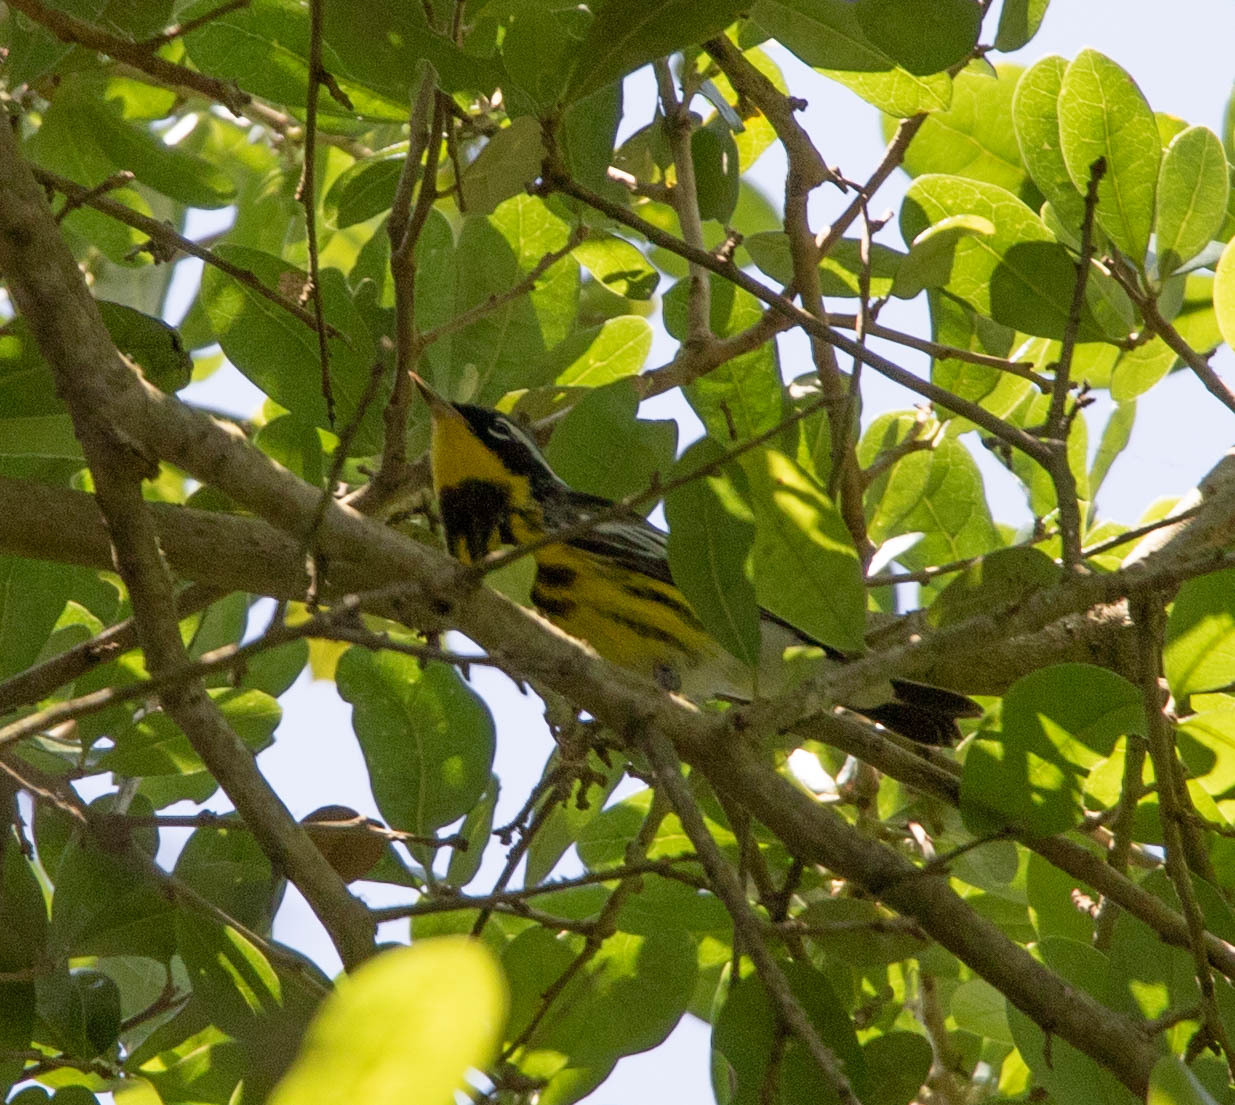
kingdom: Animalia
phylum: Chordata
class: Aves
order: Passeriformes
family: Parulidae
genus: Setophaga
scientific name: Setophaga magnolia
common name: Magnolia warbler
